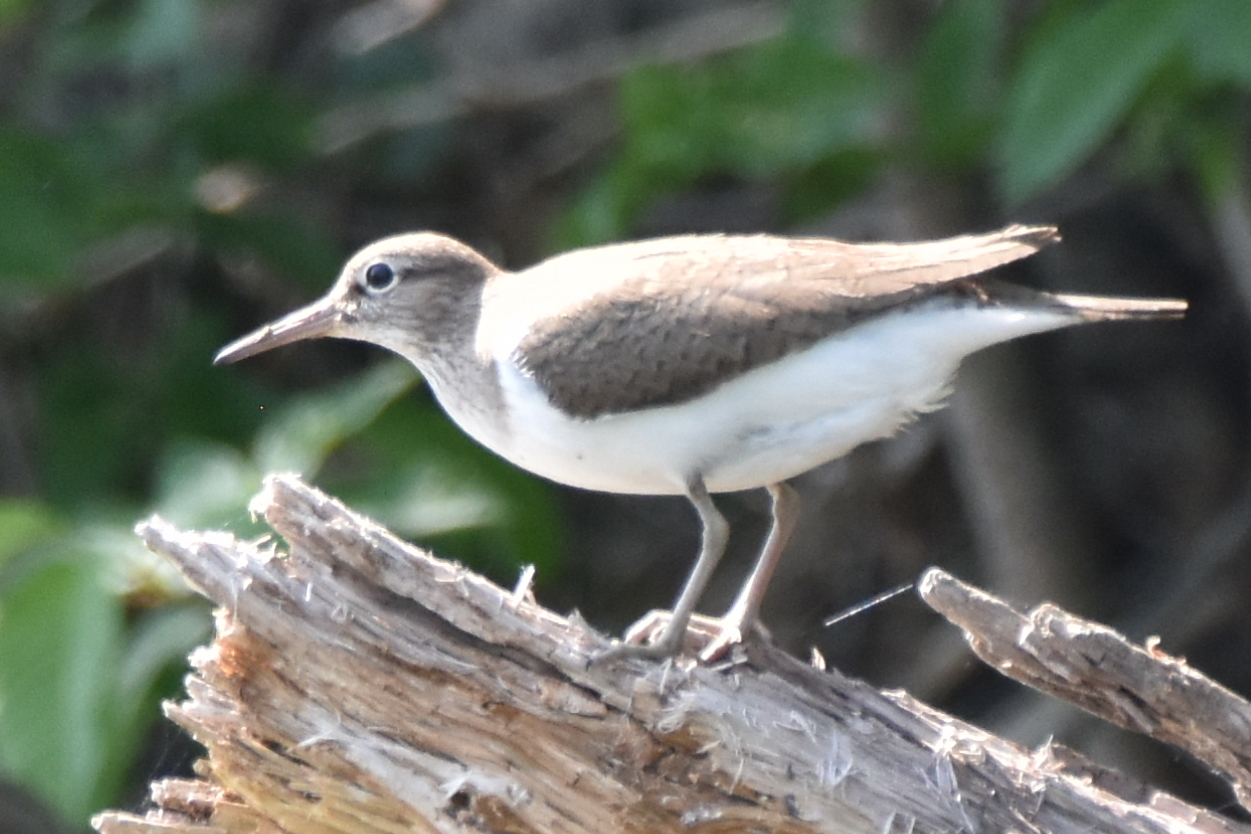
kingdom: Animalia
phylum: Chordata
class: Aves
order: Charadriiformes
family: Scolopacidae
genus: Actitis
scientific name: Actitis hypoleucos
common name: Common sandpiper
